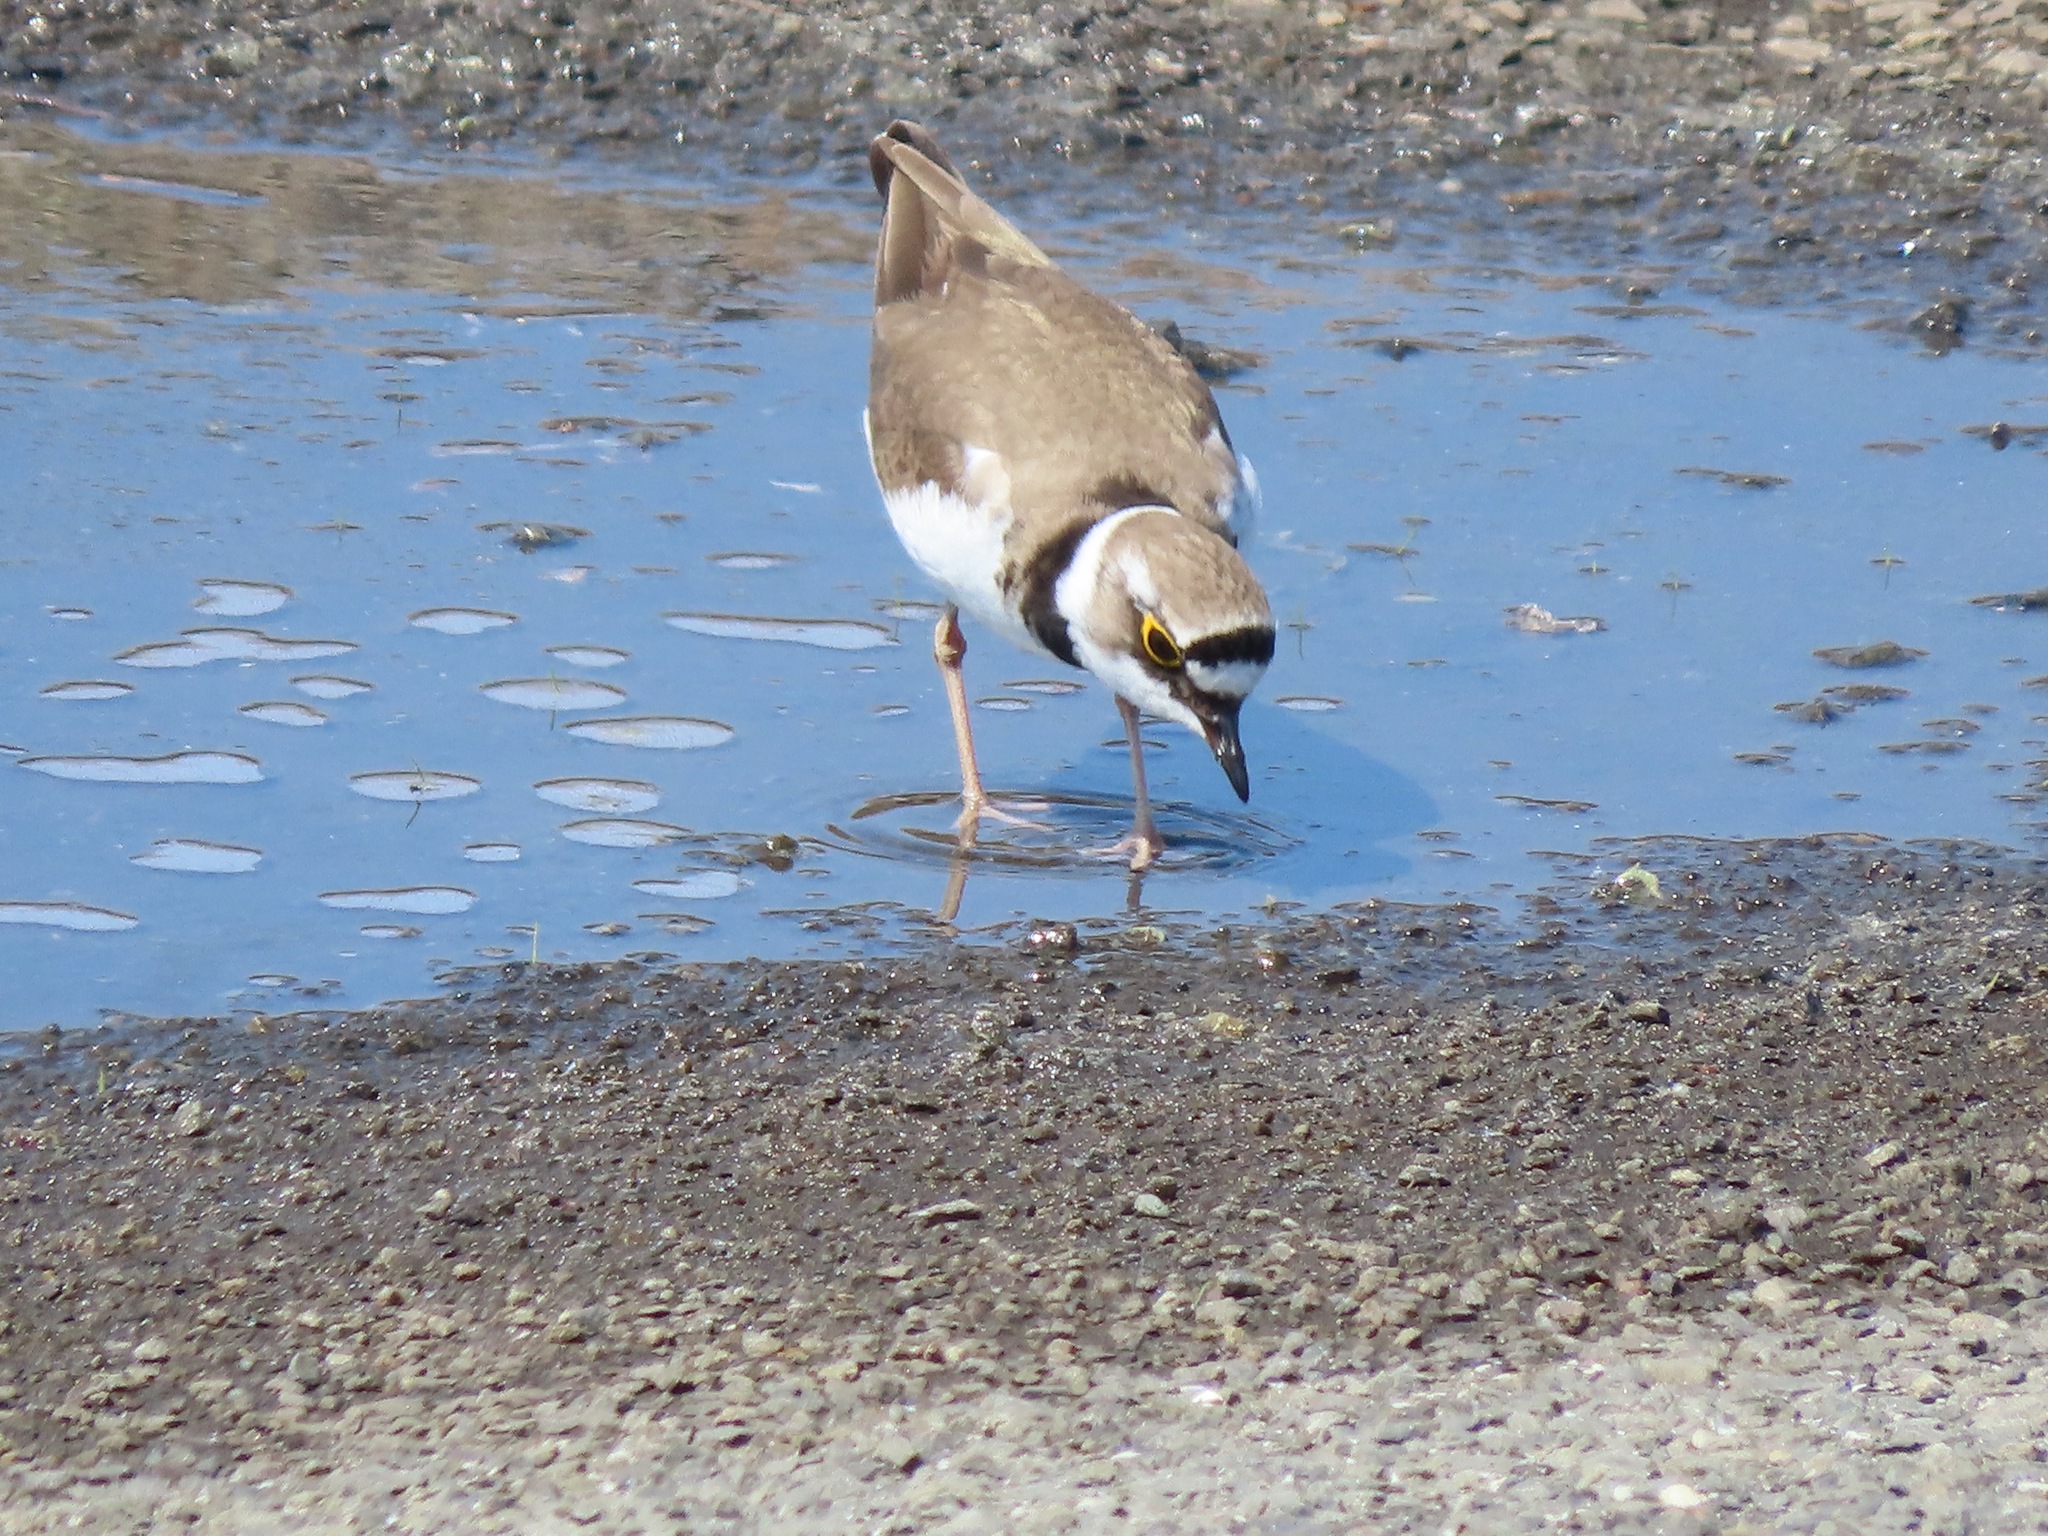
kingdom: Animalia
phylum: Chordata
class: Aves
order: Charadriiformes
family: Charadriidae
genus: Charadrius
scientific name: Charadrius dubius
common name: Little ringed plover
